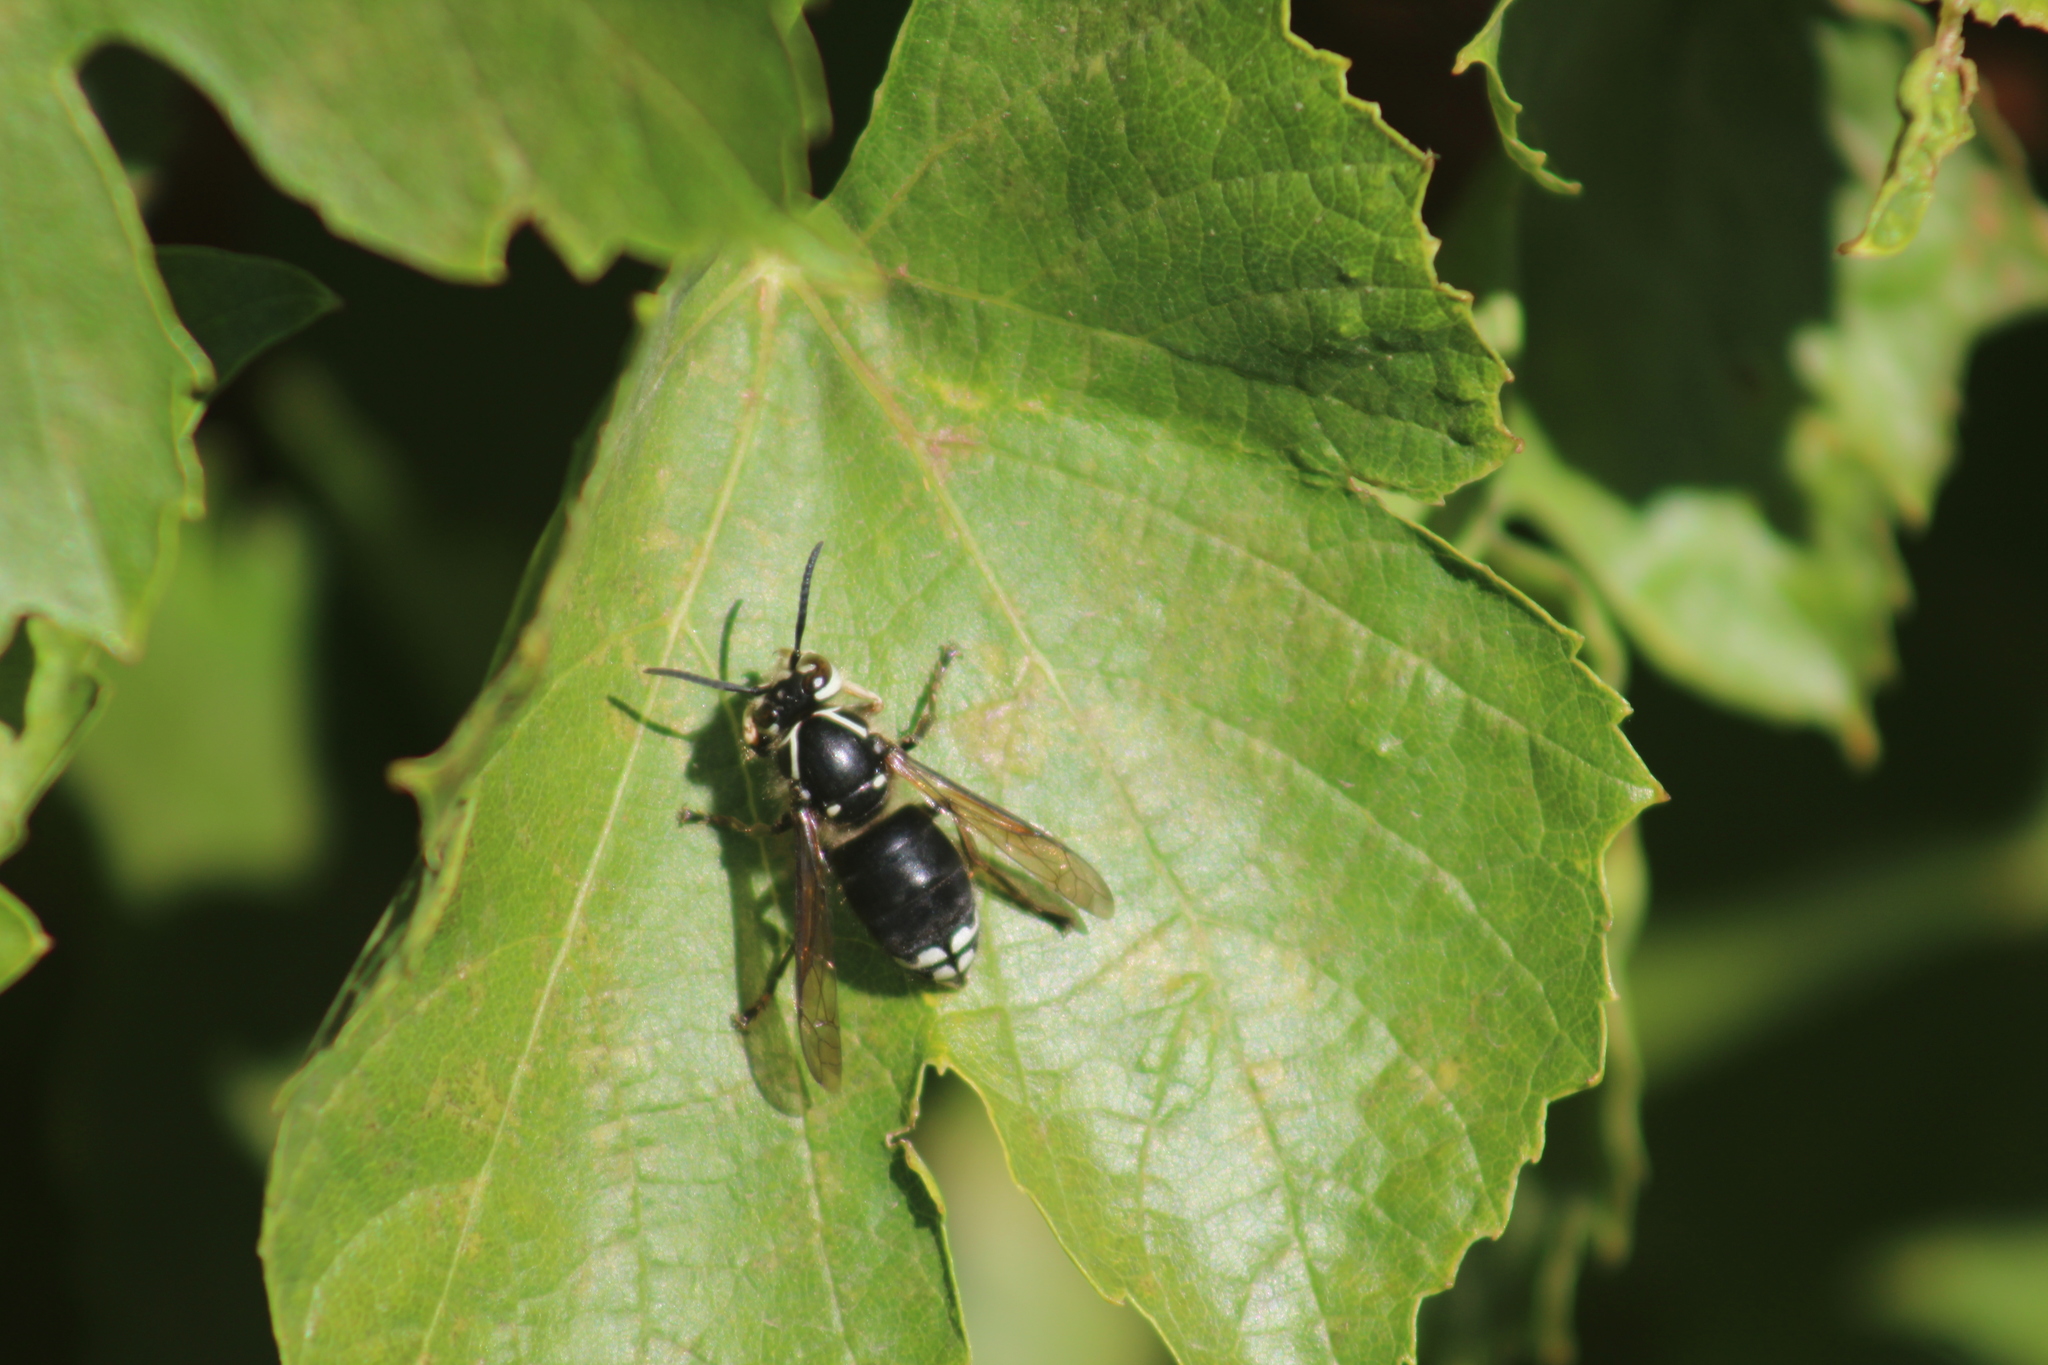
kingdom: Animalia
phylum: Arthropoda
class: Insecta
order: Hymenoptera
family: Vespidae
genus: Dolichovespula
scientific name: Dolichovespula maculata
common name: Bald-faced hornet
